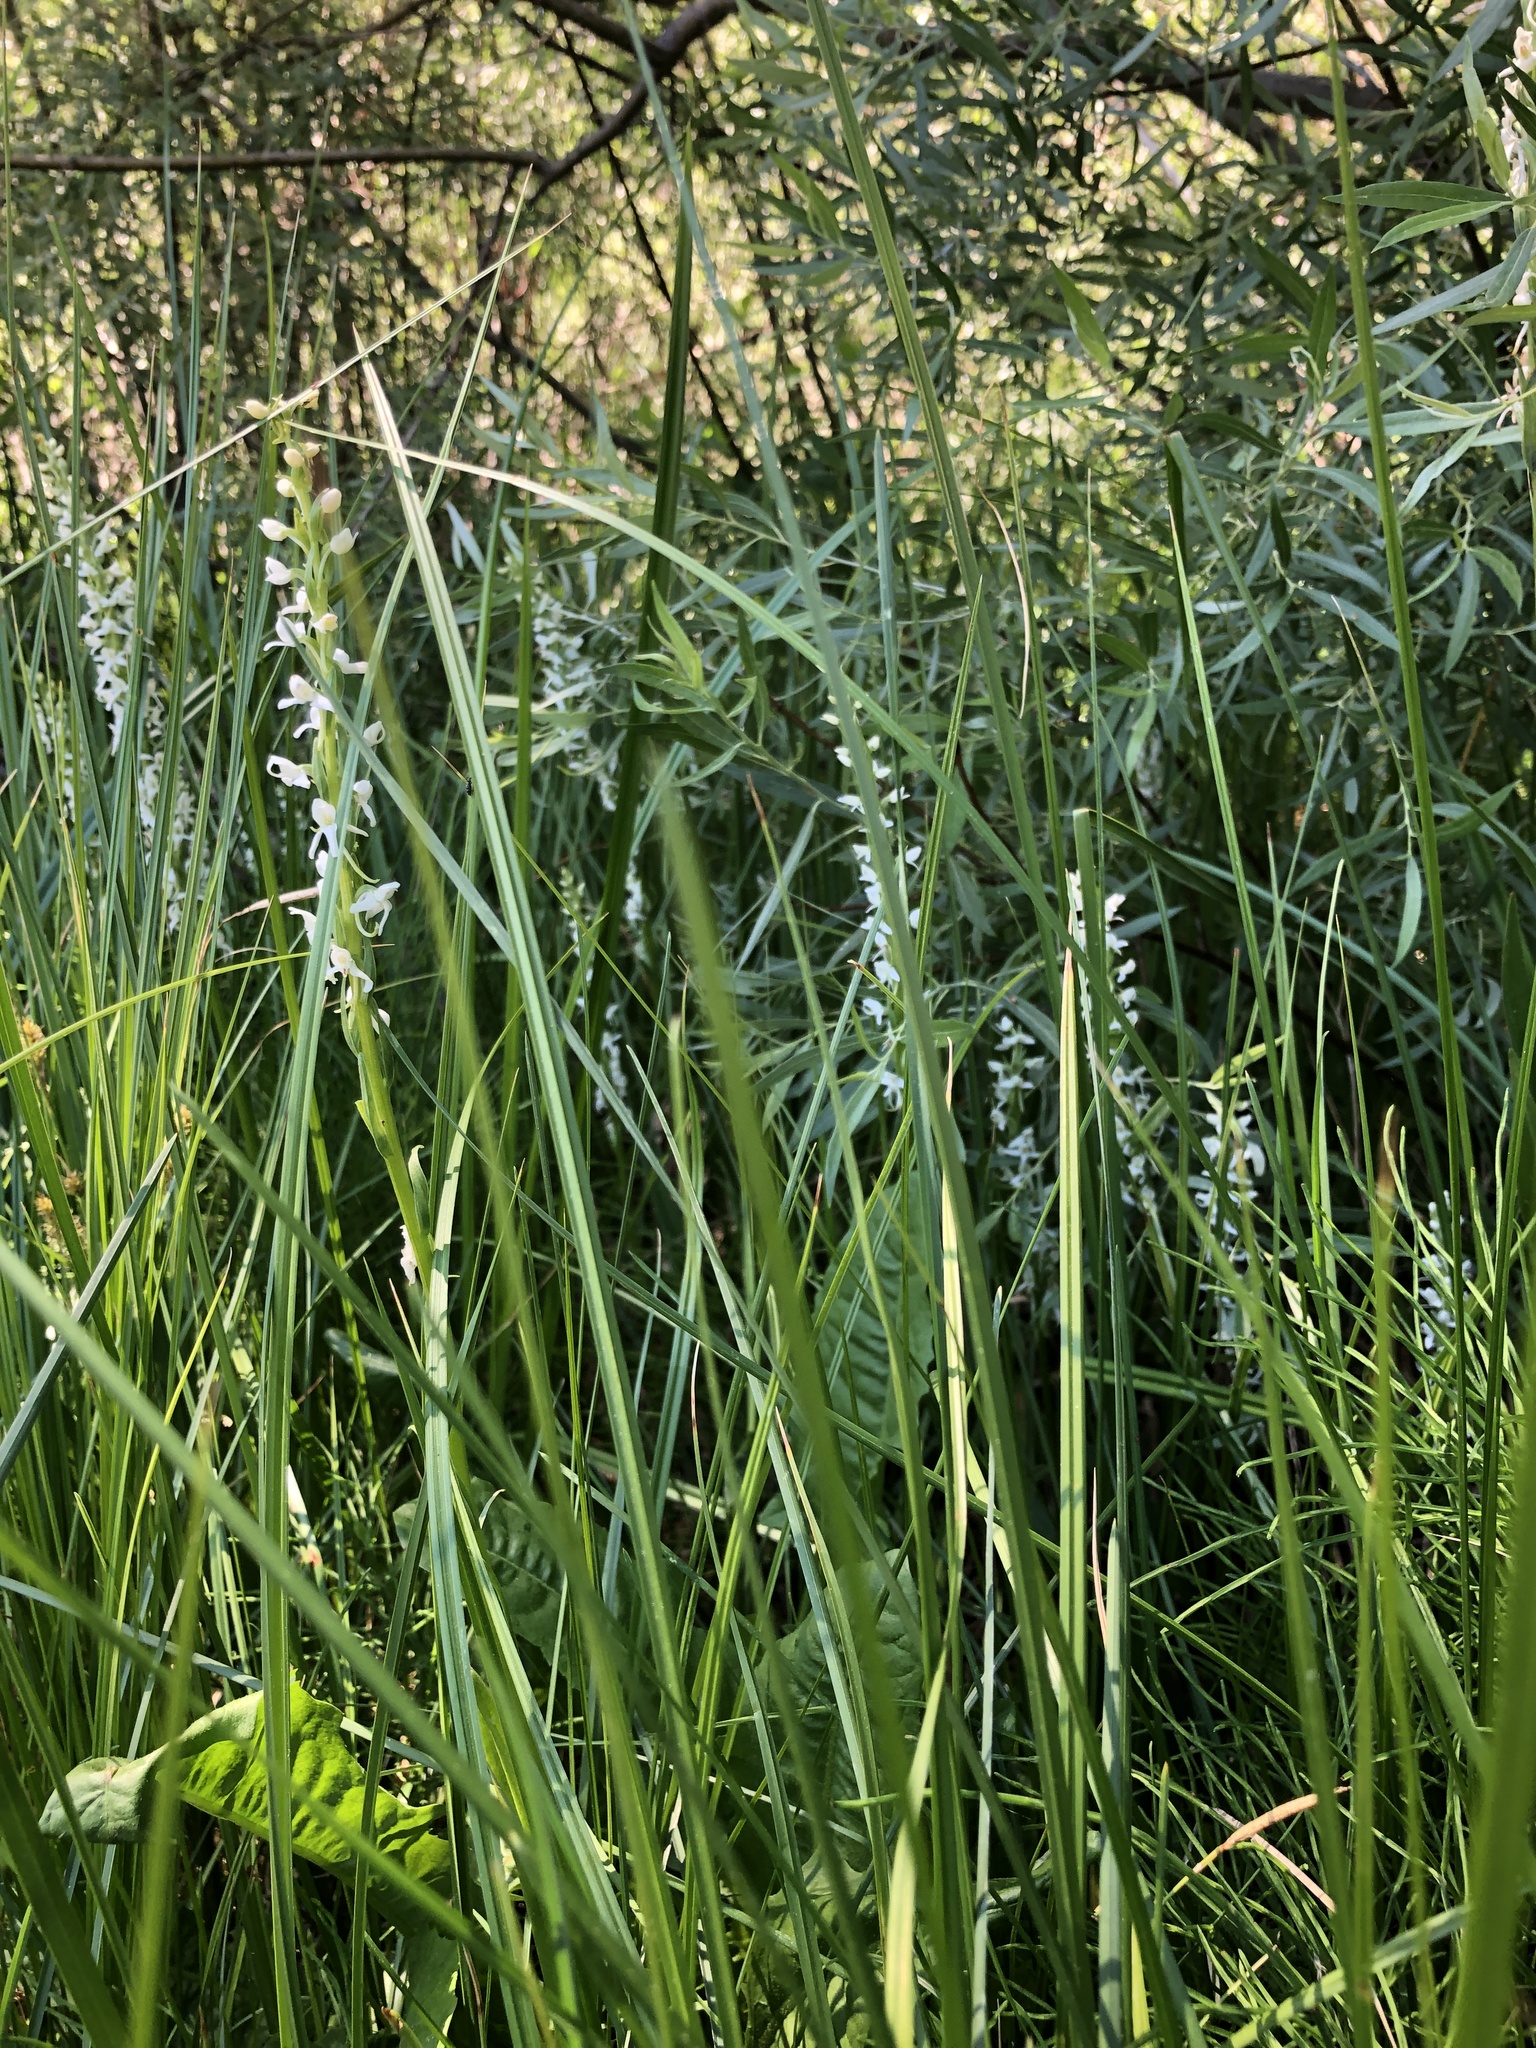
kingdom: Plantae
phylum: Tracheophyta
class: Liliopsida
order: Asparagales
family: Orchidaceae
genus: Platanthera
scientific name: Platanthera dilatata
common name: Bog candles
